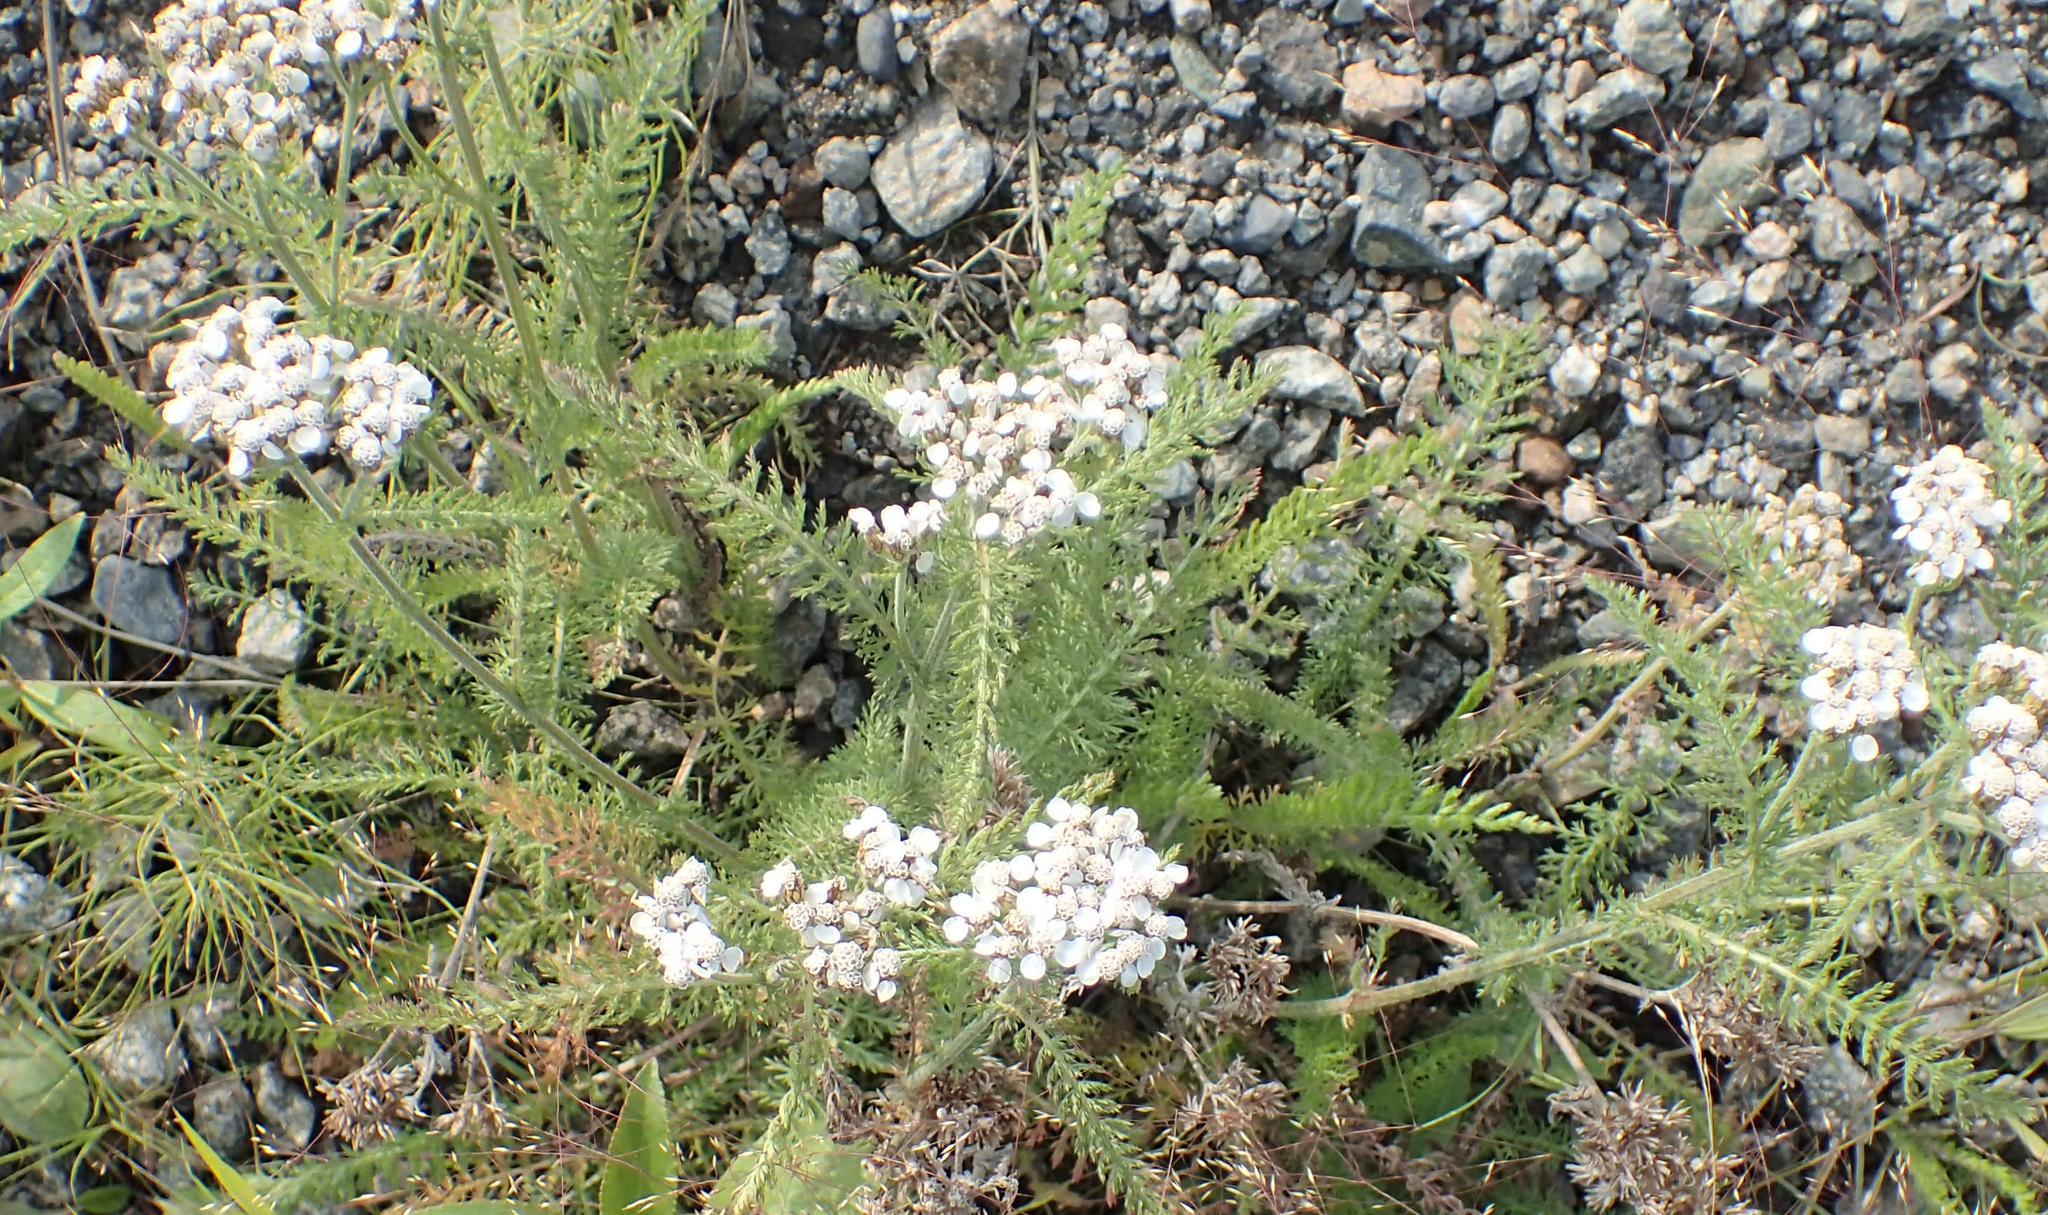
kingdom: Plantae
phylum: Tracheophyta
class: Magnoliopsida
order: Asterales
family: Asteraceae
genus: Achillea
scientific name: Achillea millefolium
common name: Yarrow
